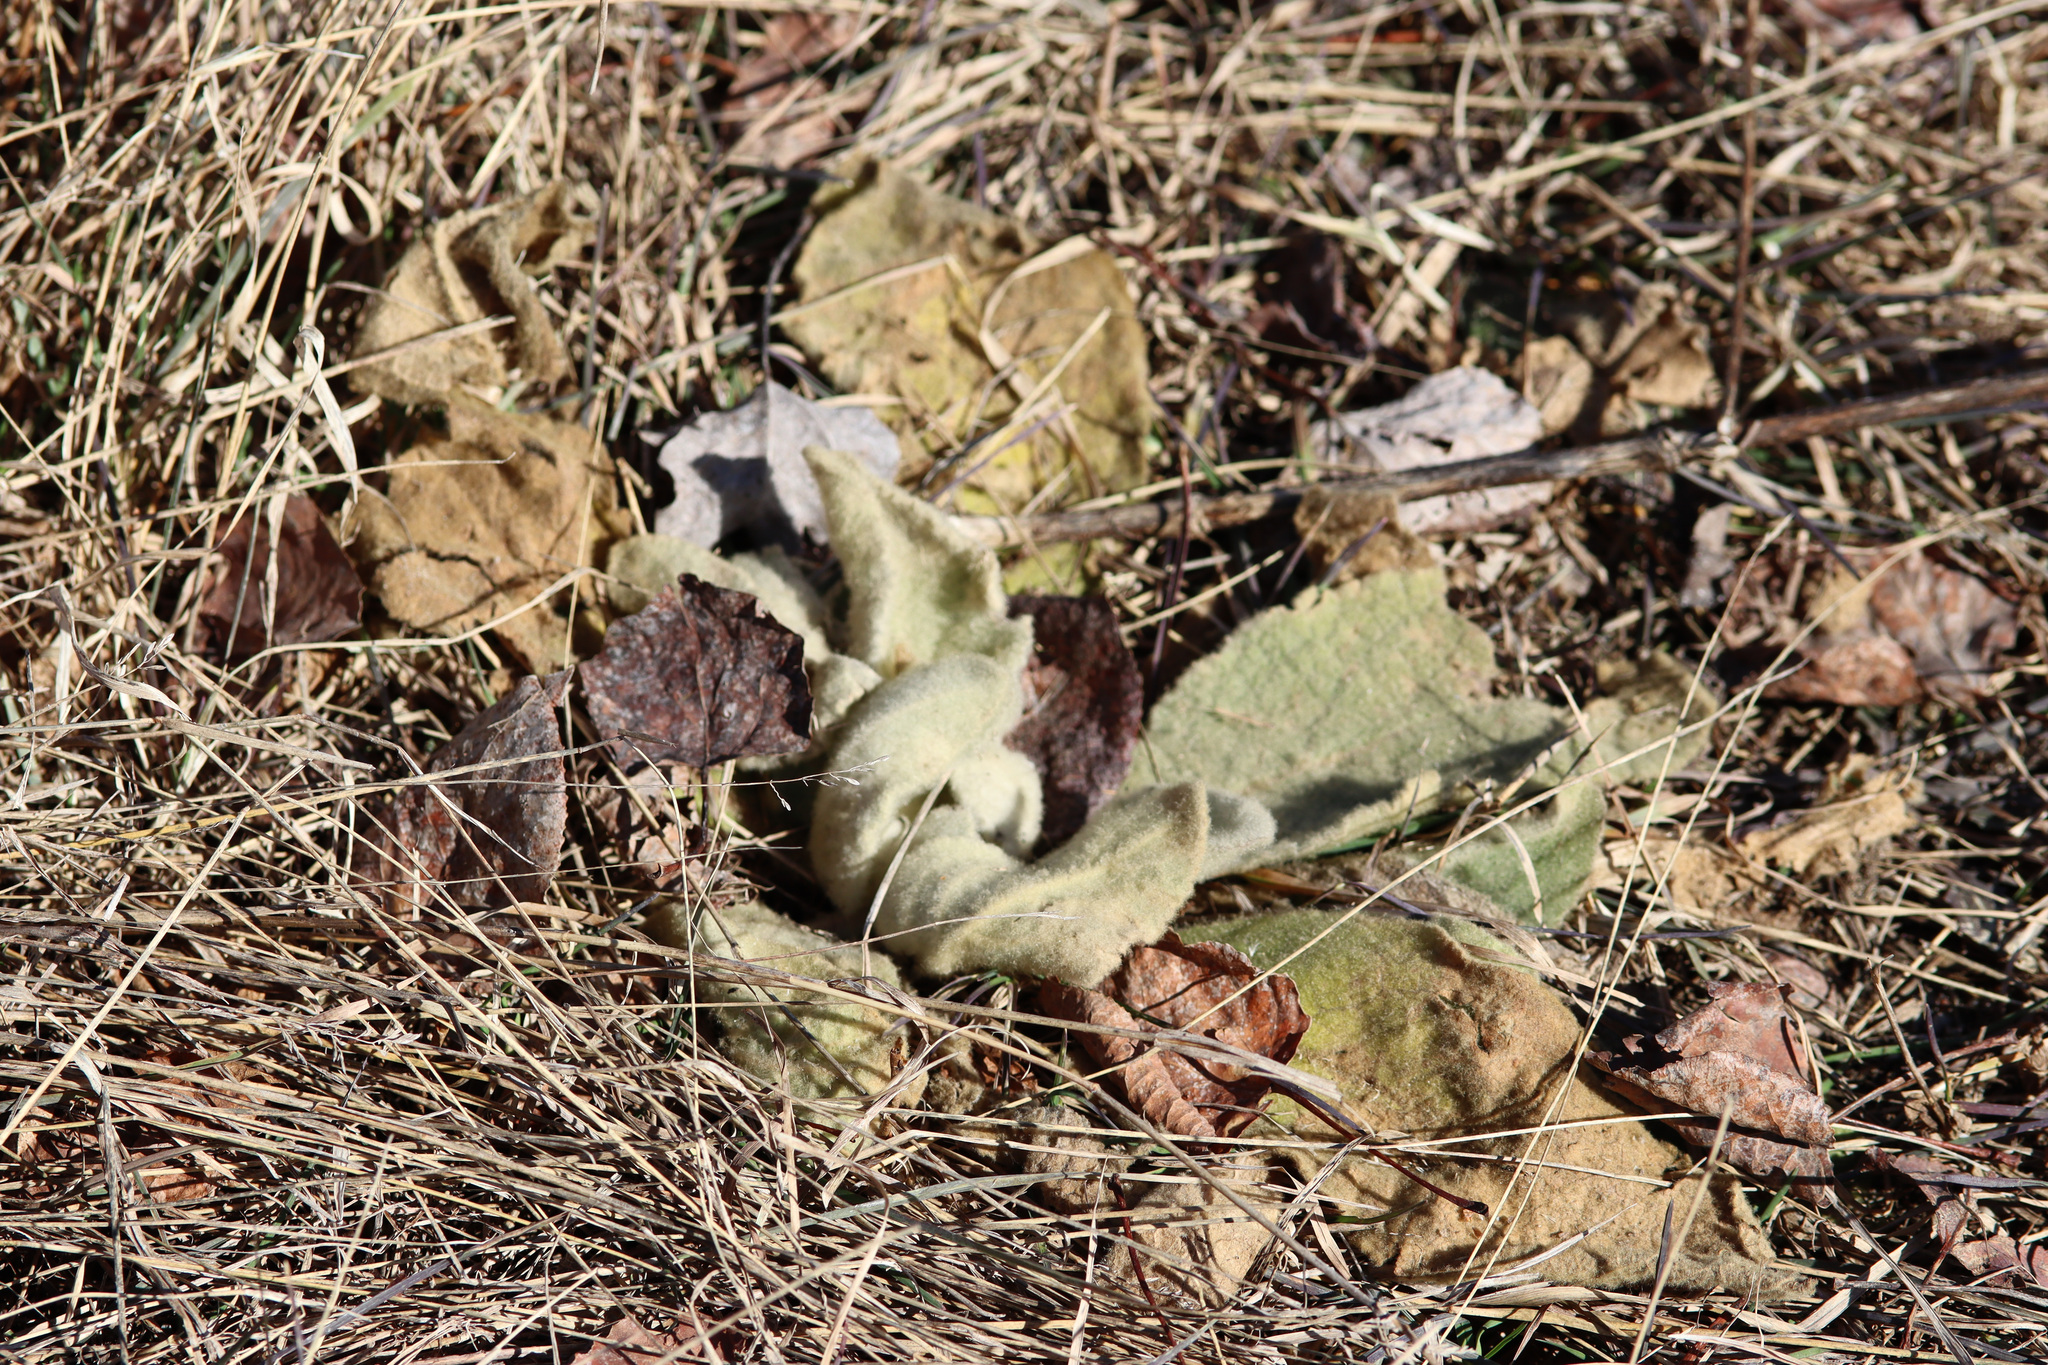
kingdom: Plantae
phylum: Tracheophyta
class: Magnoliopsida
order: Lamiales
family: Scrophulariaceae
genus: Verbascum
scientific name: Verbascum thapsus
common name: Common mullein
